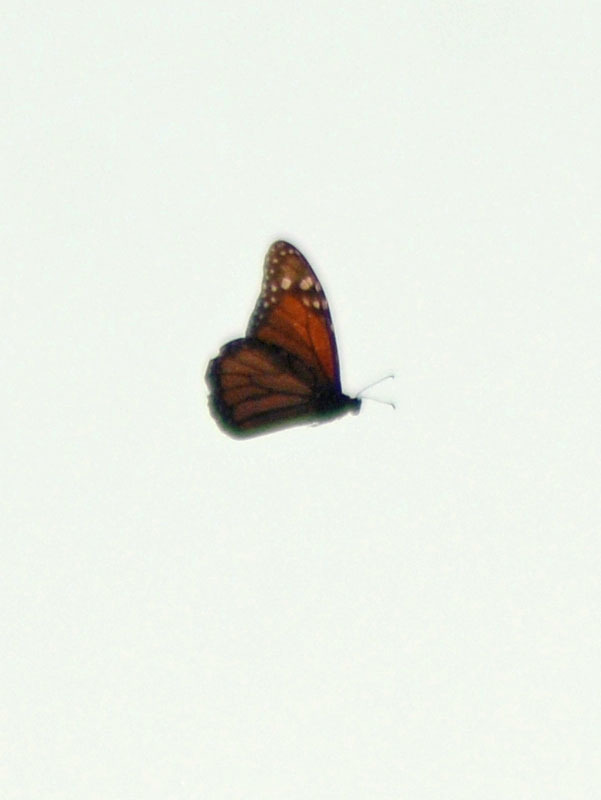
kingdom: Animalia
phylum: Arthropoda
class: Insecta
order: Lepidoptera
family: Nymphalidae
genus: Danaus
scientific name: Danaus plexippus
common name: Monarch
